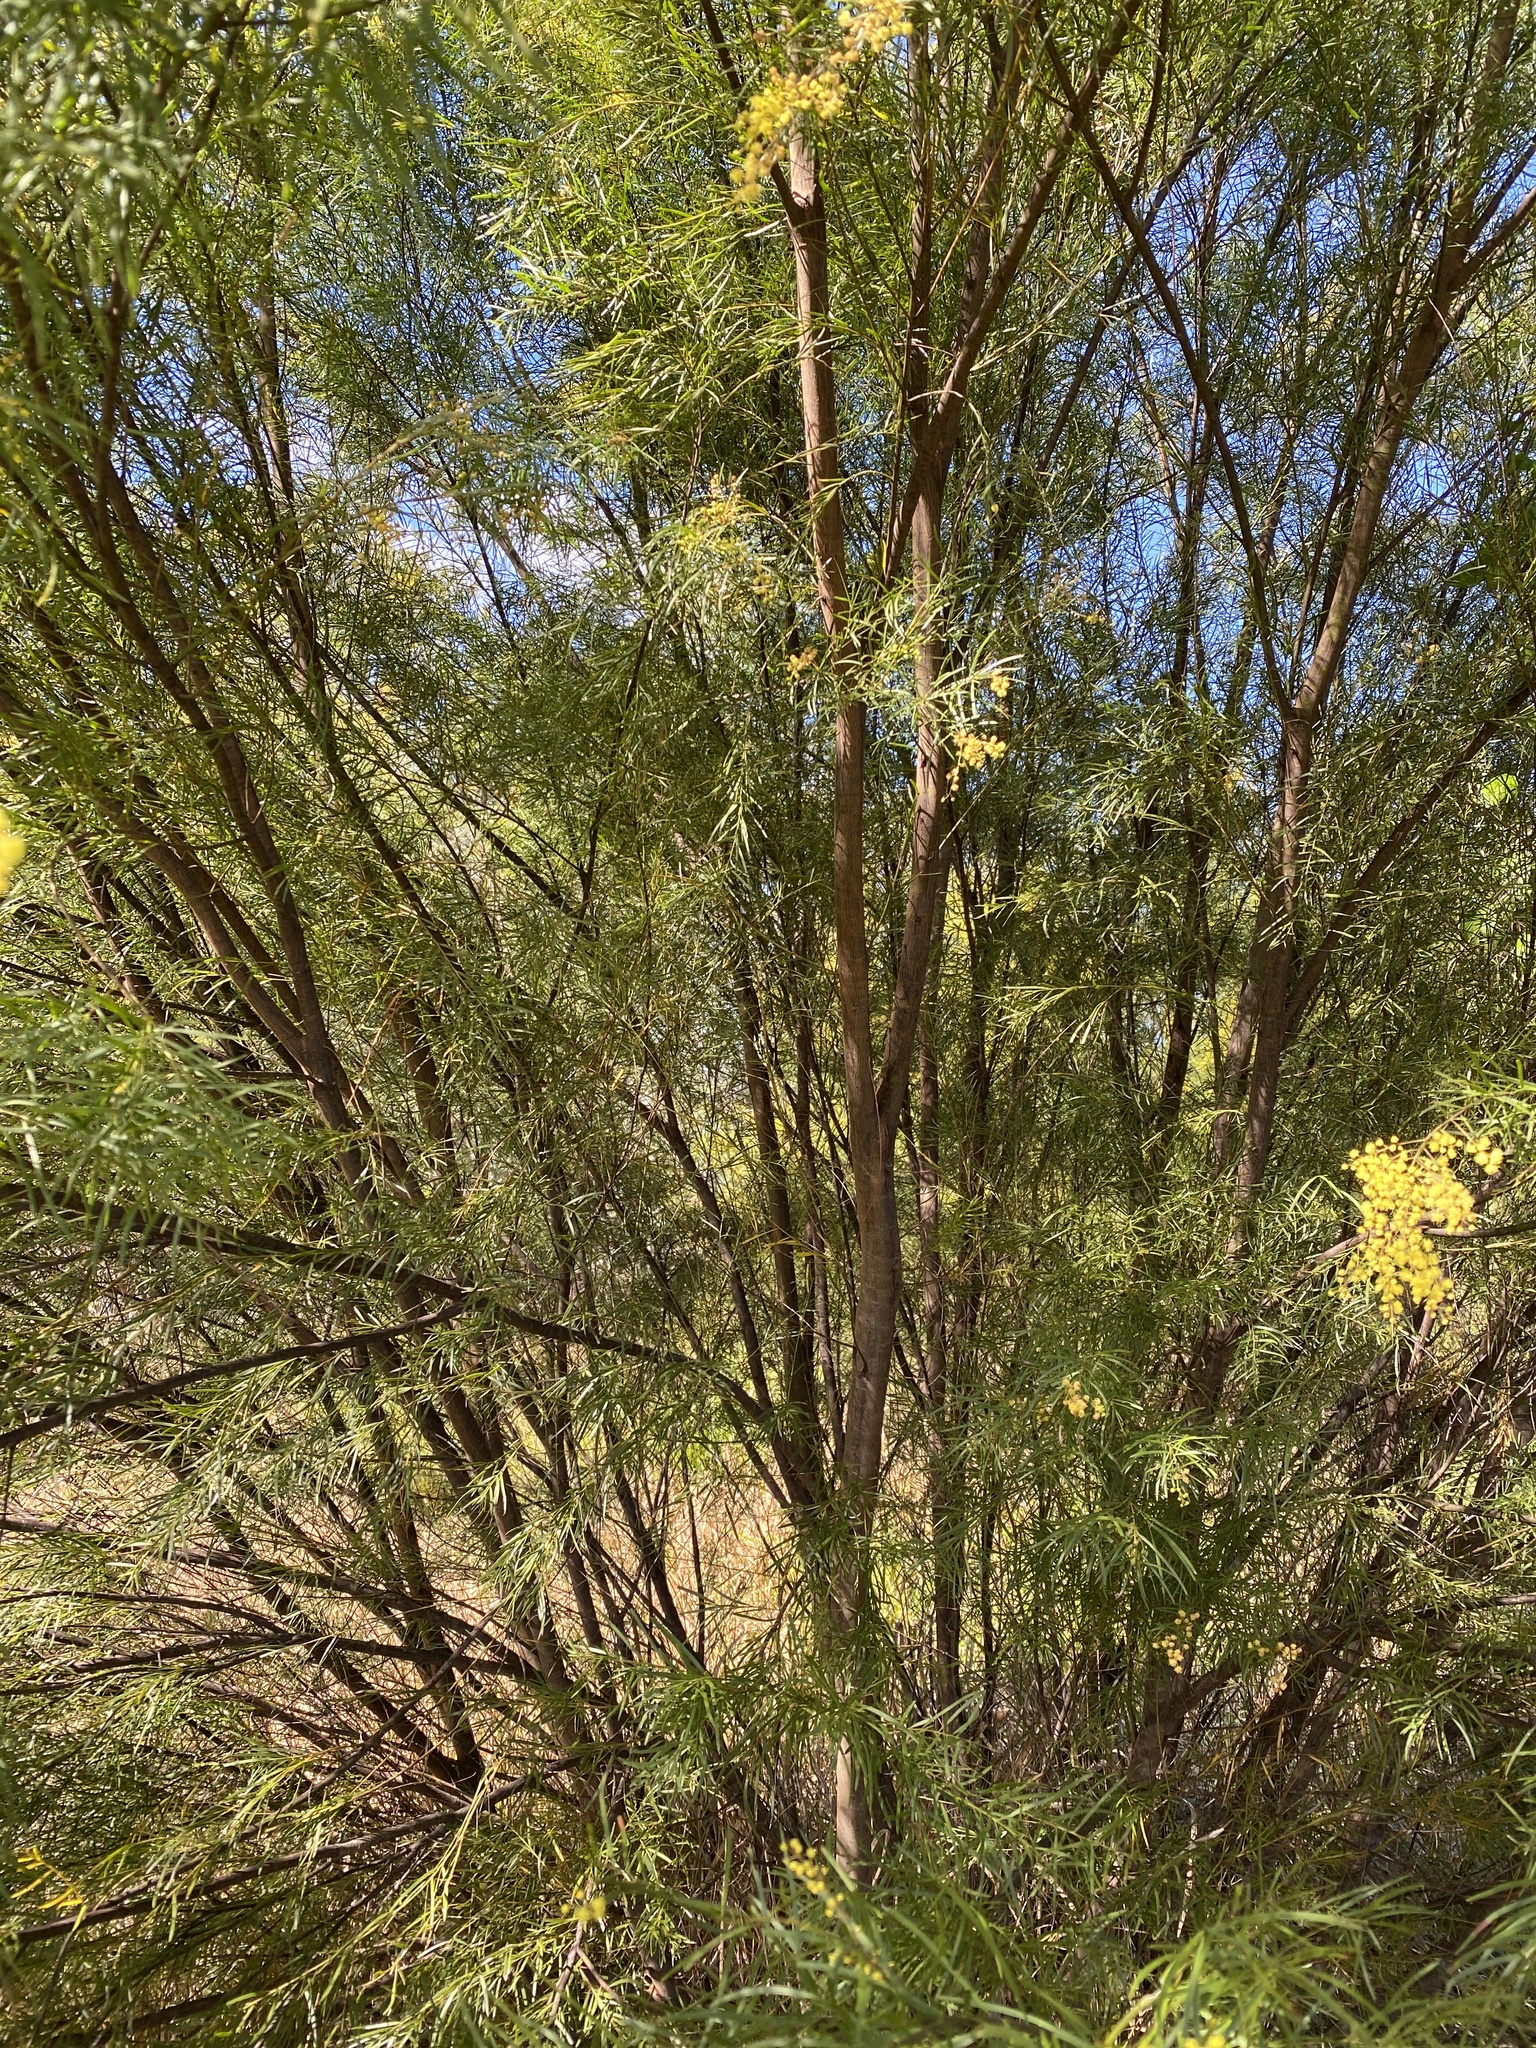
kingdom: Plantae
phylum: Tracheophyta
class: Magnoliopsida
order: Fabales
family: Fabaceae
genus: Acacia
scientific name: Acacia fimbriata
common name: Brisbane golden wattle
